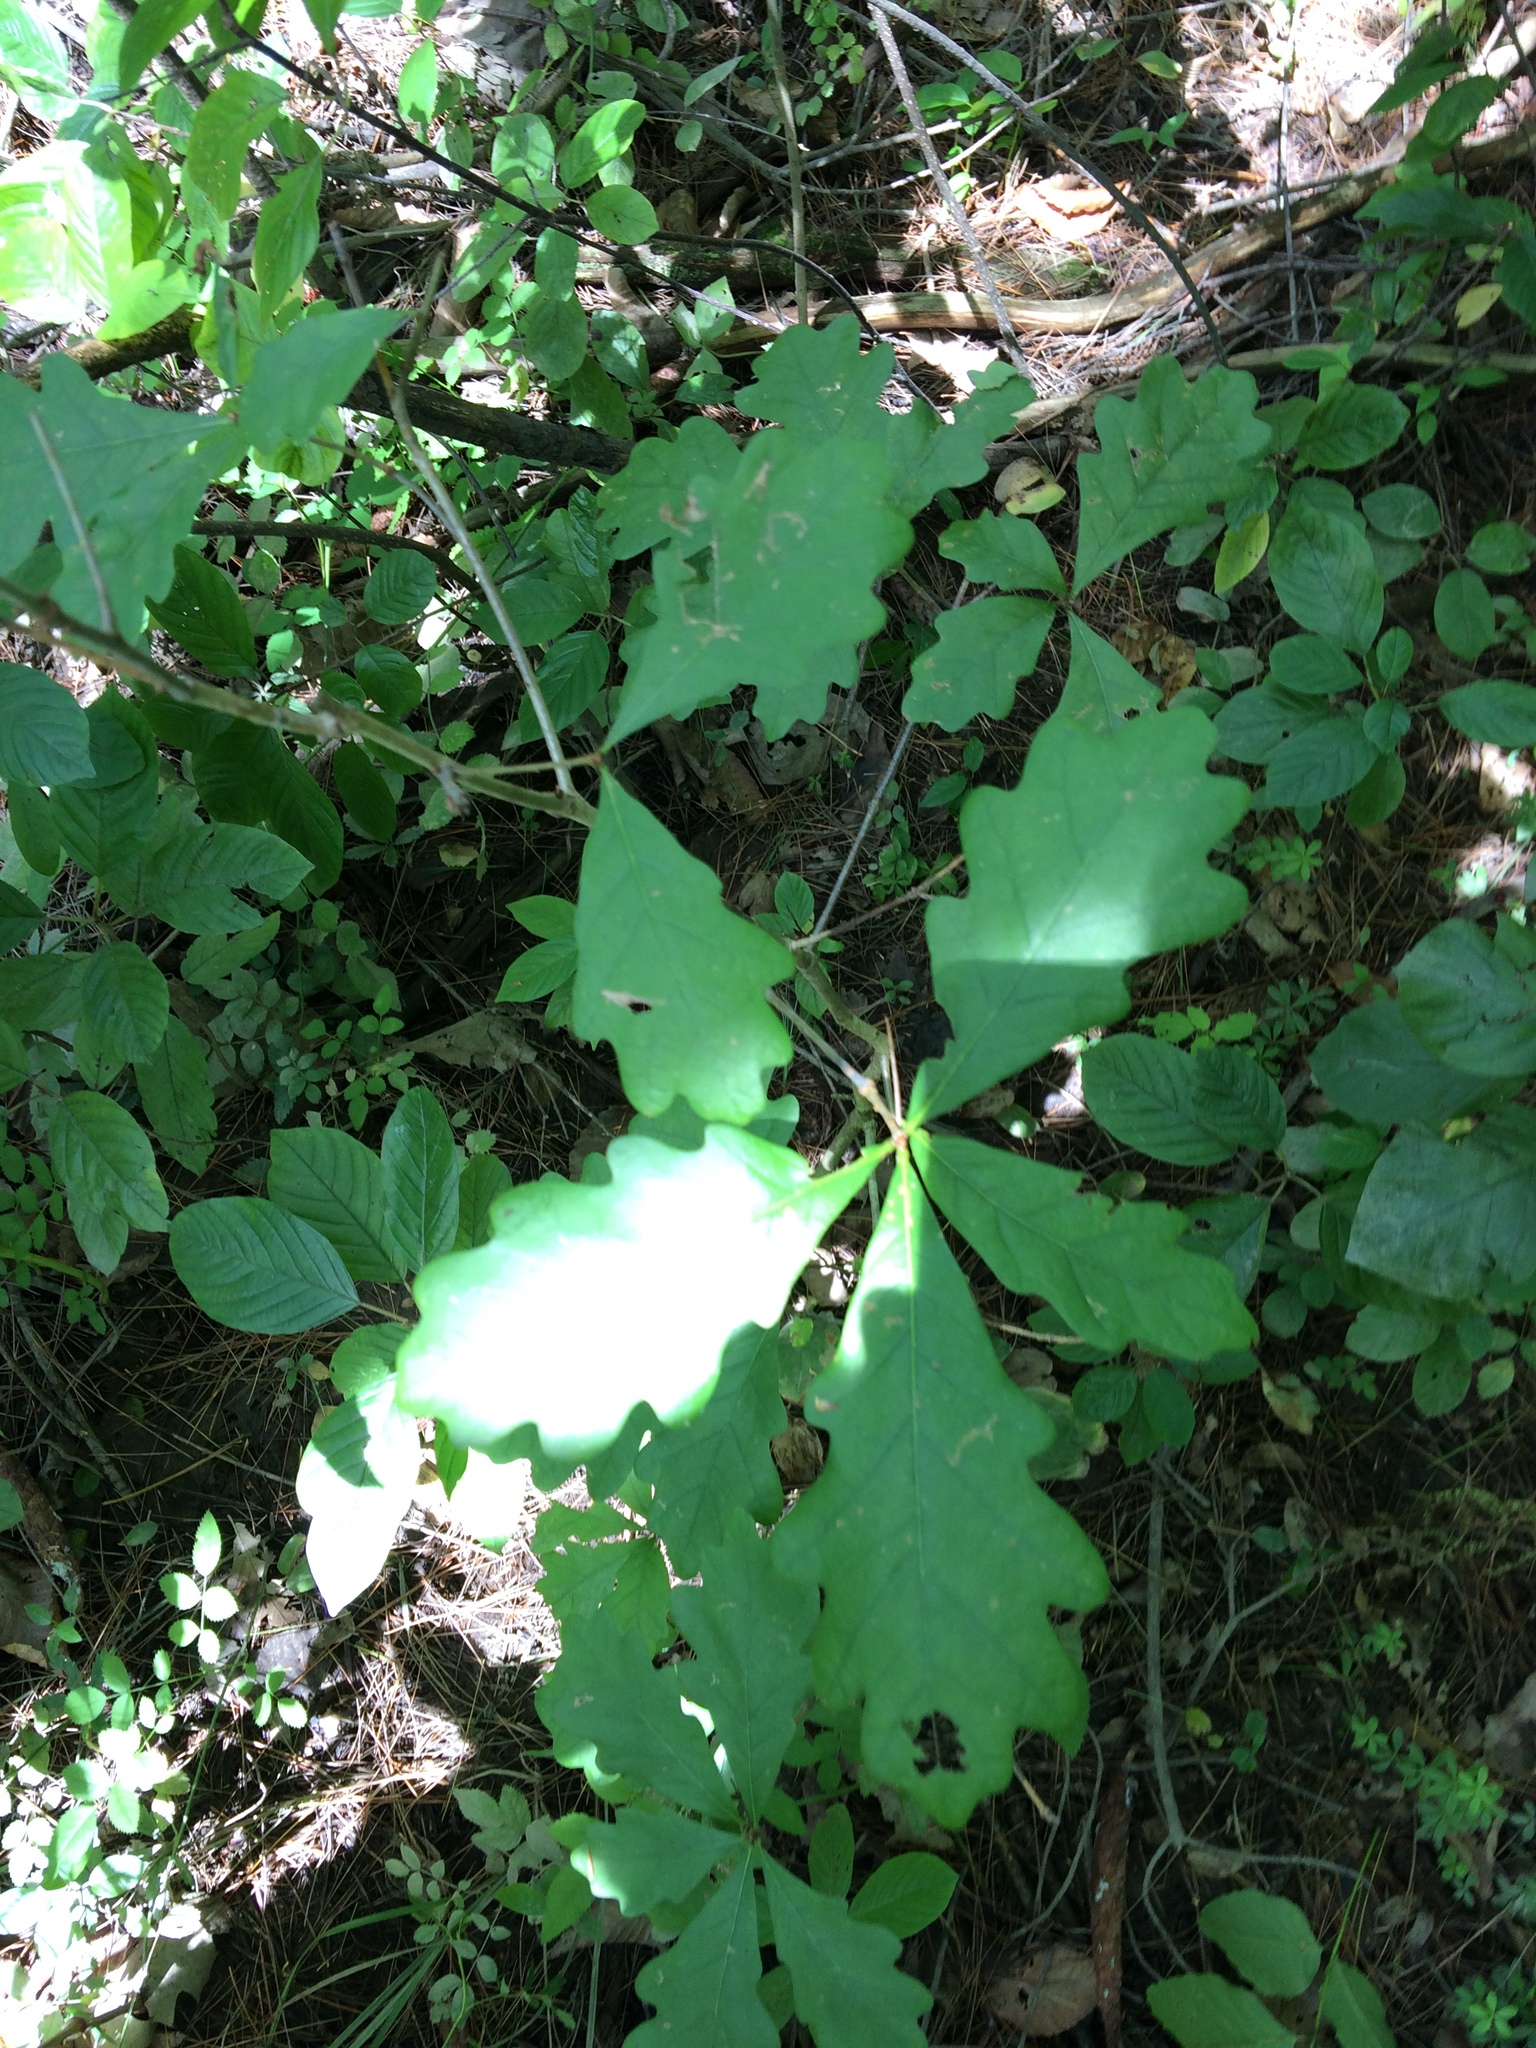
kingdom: Plantae
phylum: Tracheophyta
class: Magnoliopsida
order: Fagales
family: Fagaceae
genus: Quercus
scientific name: Quercus alba
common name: White oak
